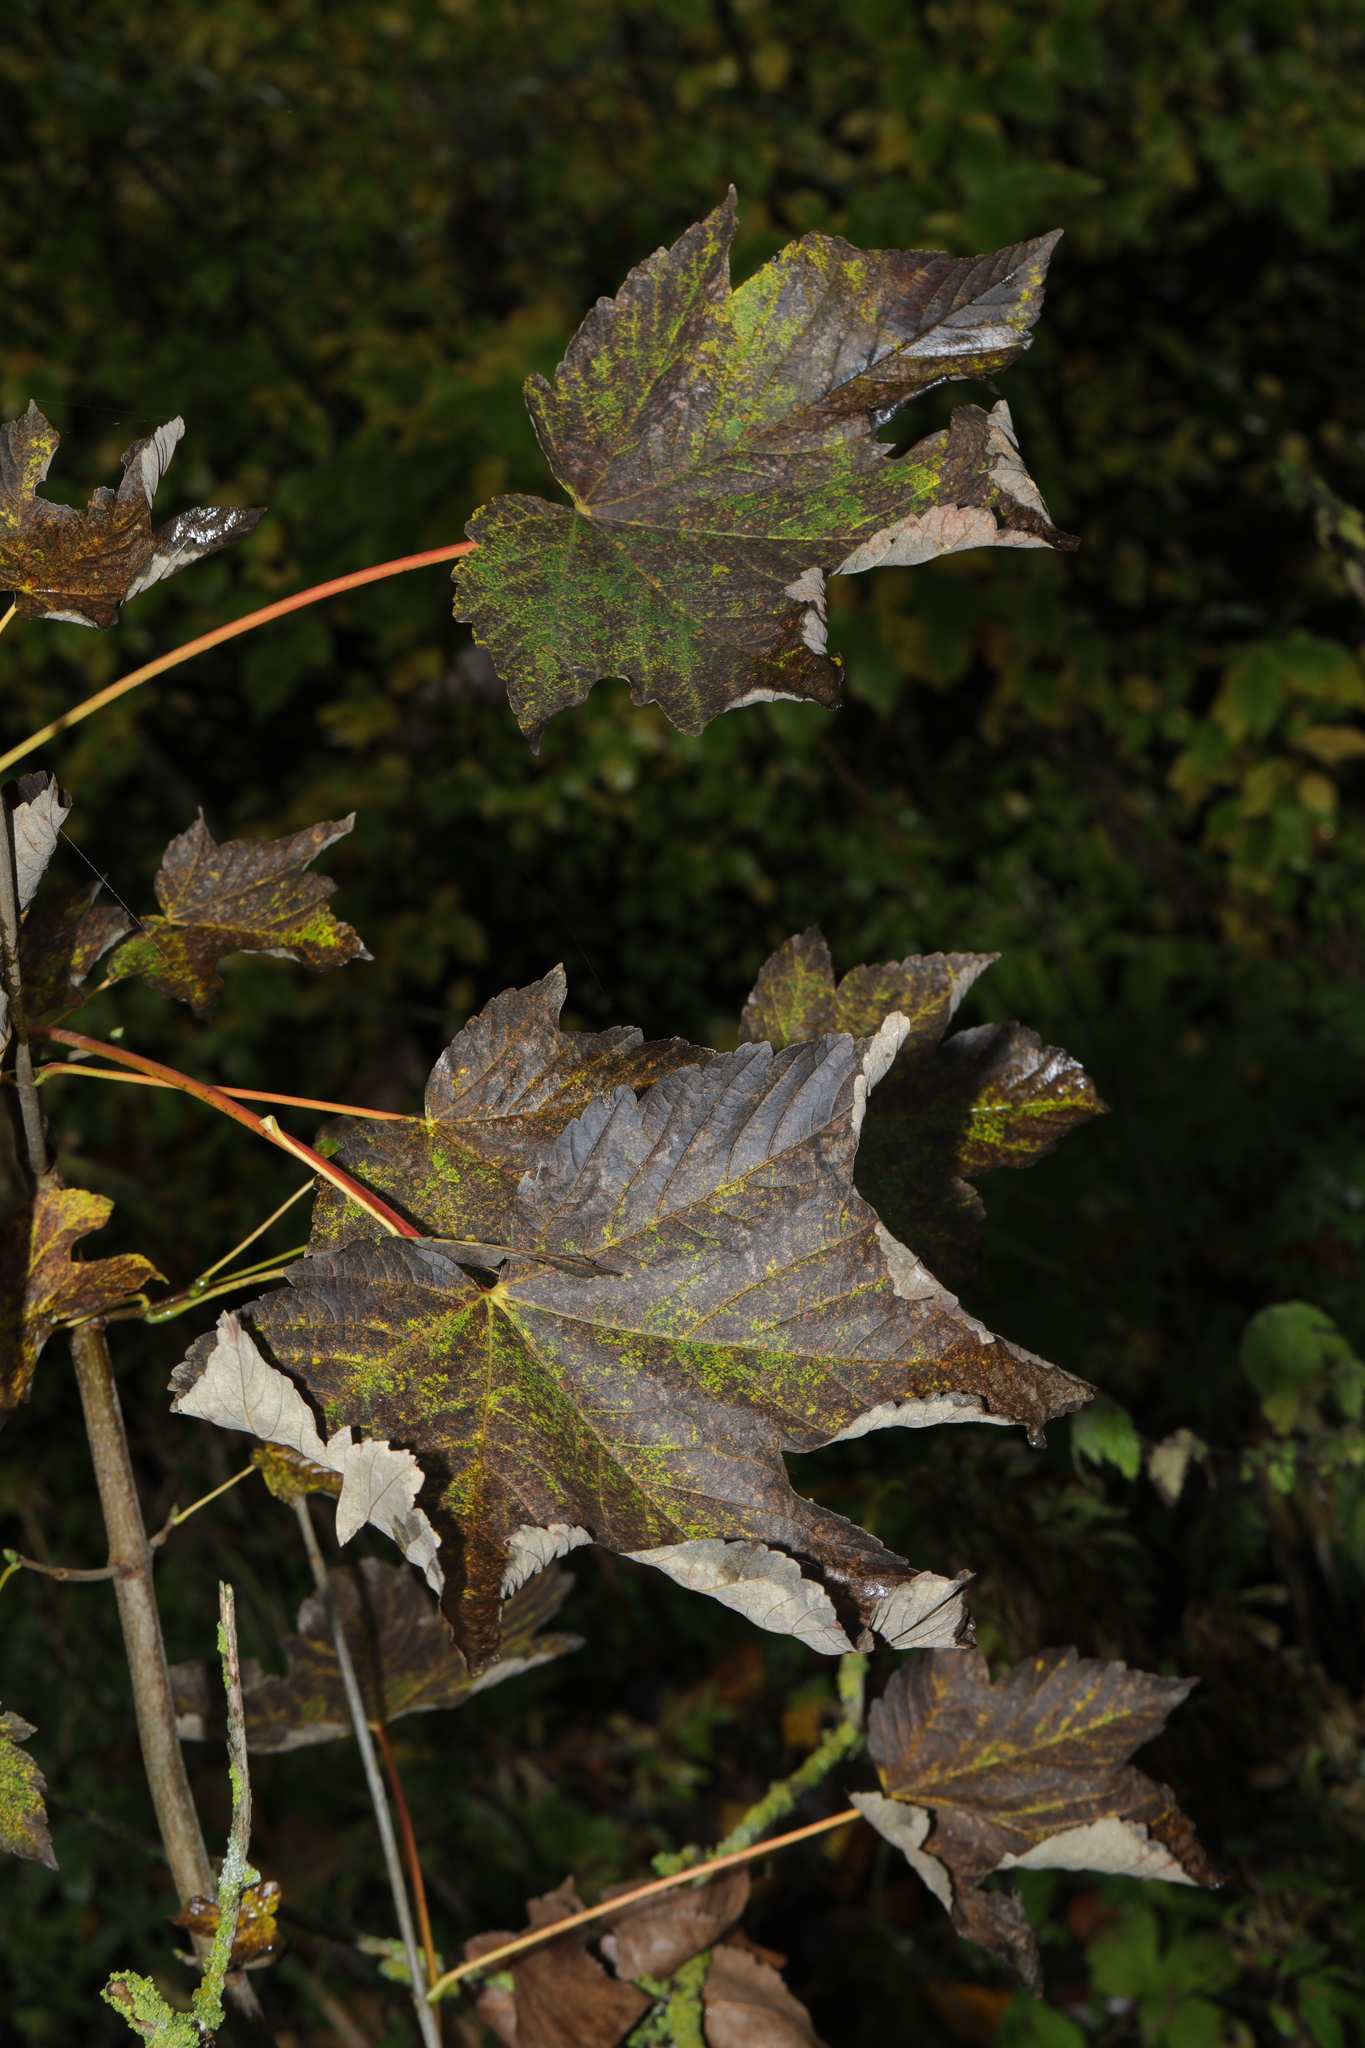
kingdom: Plantae
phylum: Tracheophyta
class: Magnoliopsida
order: Sapindales
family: Sapindaceae
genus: Acer
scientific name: Acer pseudoplatanus
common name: Sycamore
